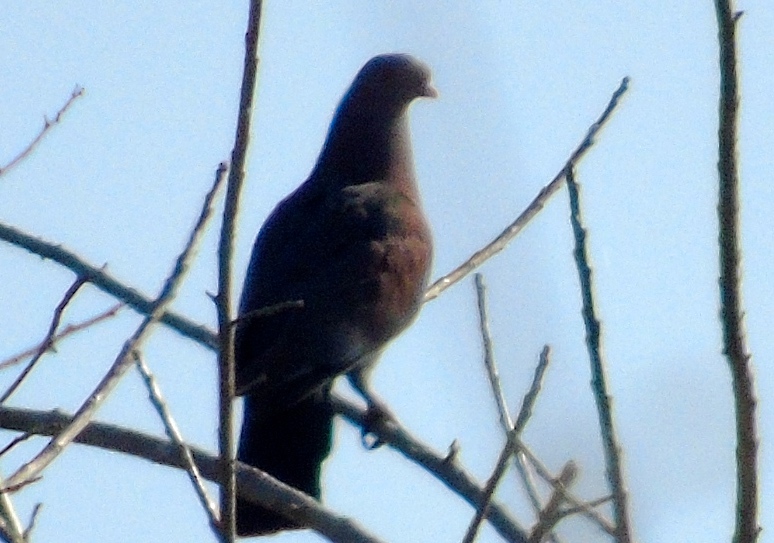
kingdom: Animalia
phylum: Chordata
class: Aves
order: Columbiformes
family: Columbidae
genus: Patagioenas
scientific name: Patagioenas flavirostris
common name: Red-billed pigeon
